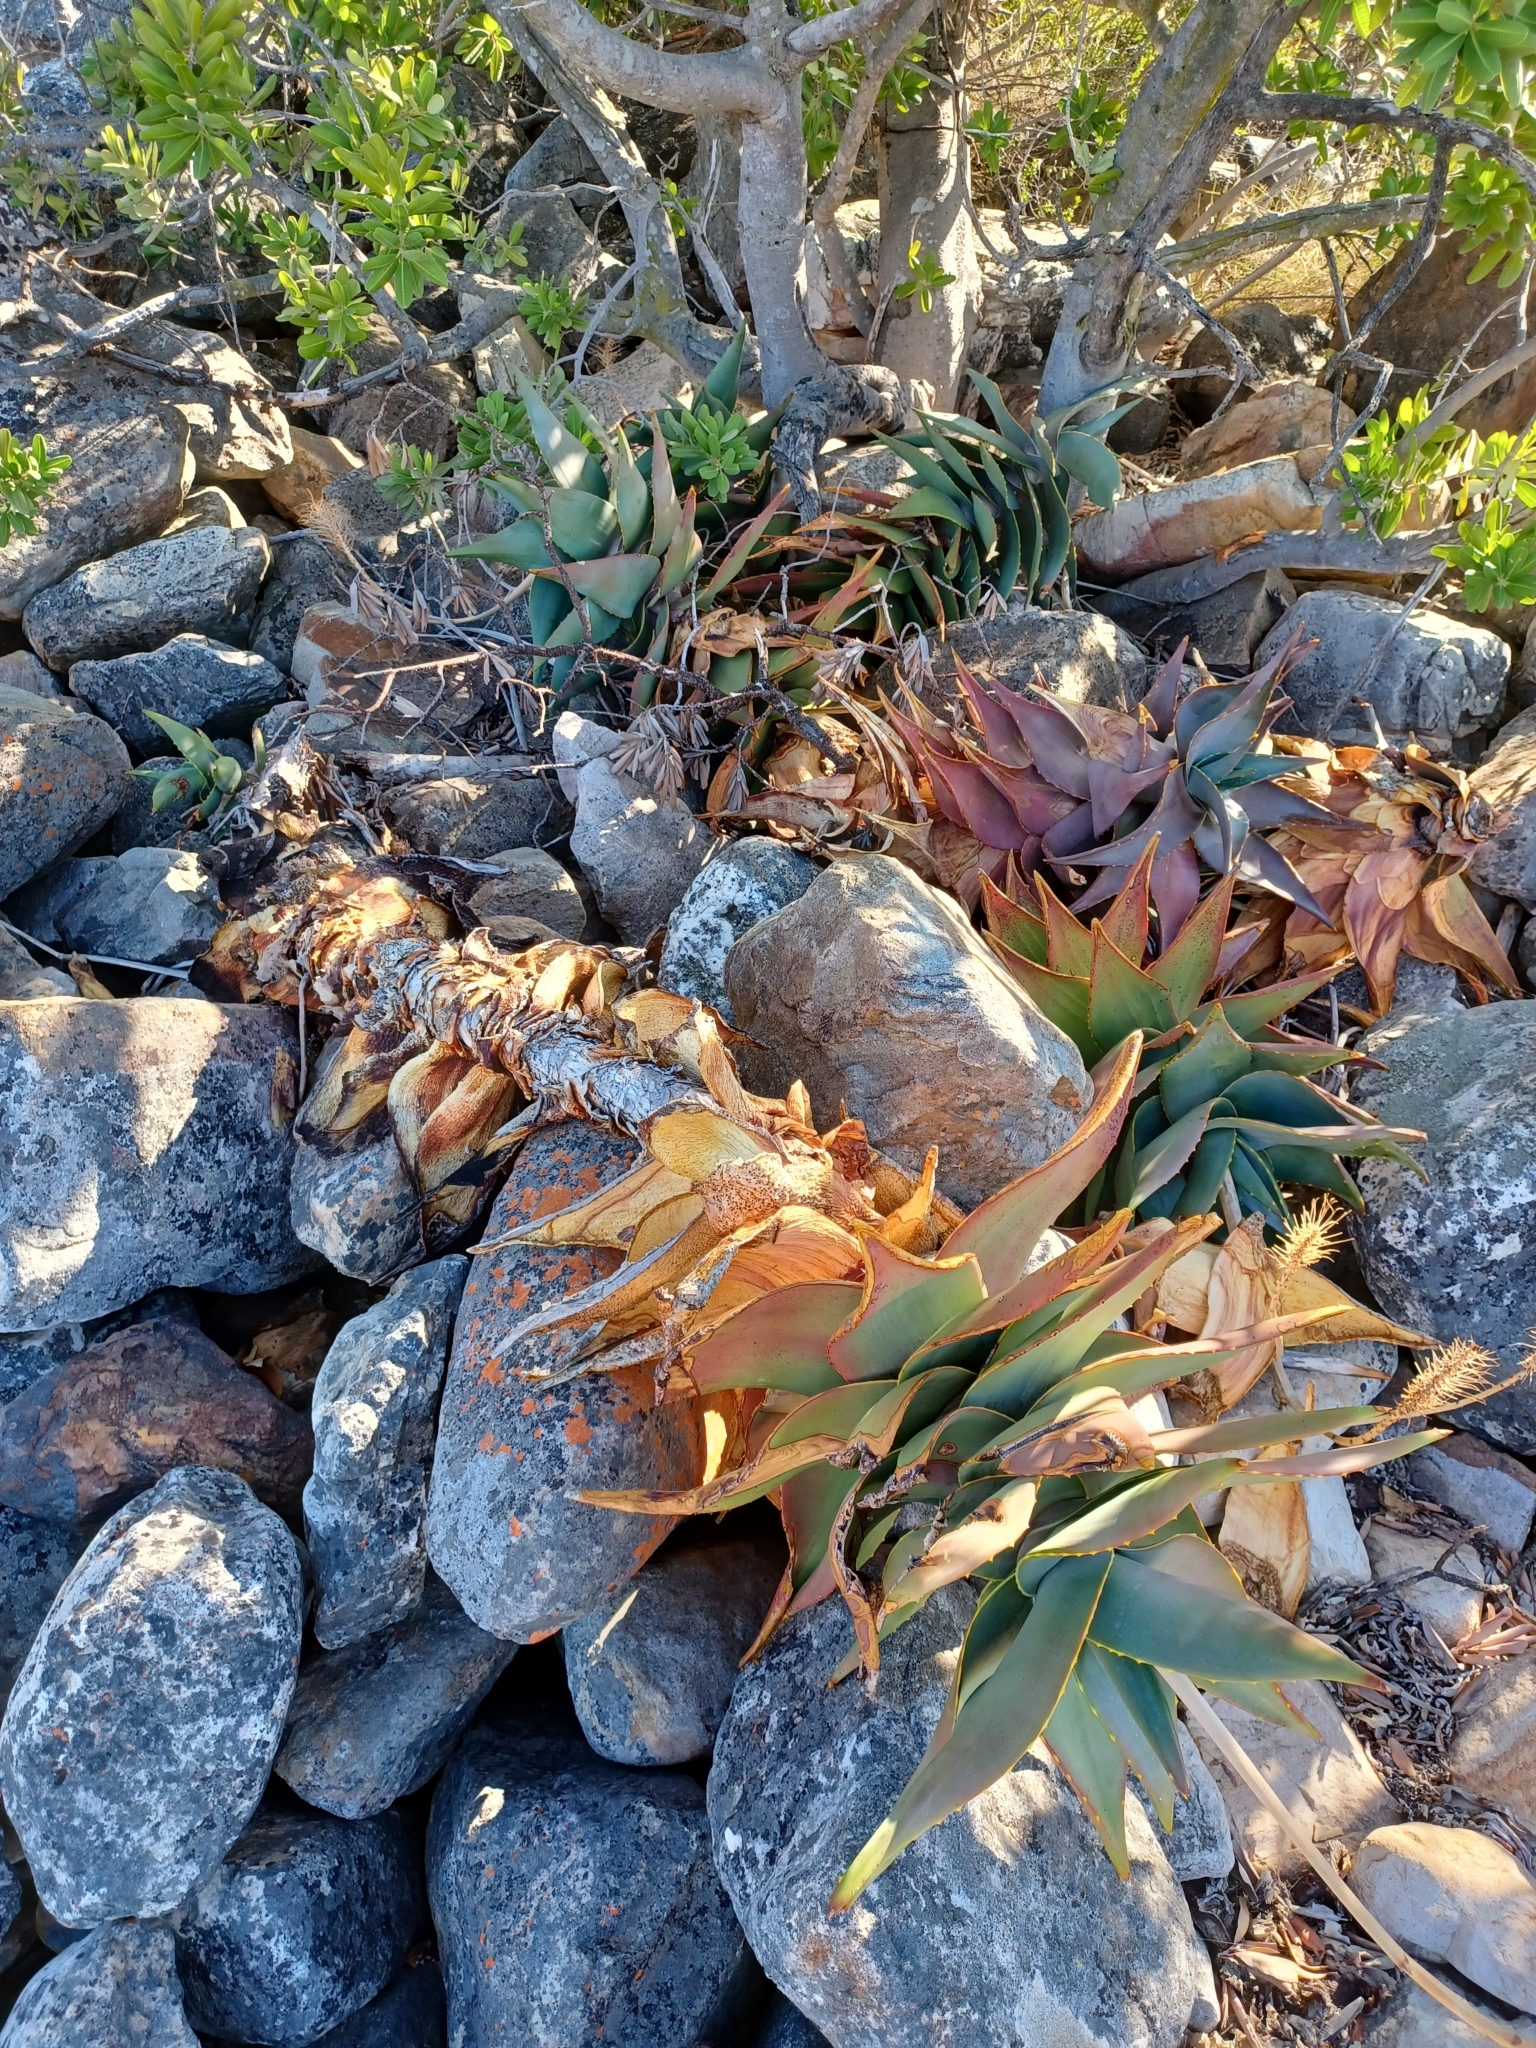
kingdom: Plantae
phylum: Tracheophyta
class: Liliopsida
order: Asparagales
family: Asphodelaceae
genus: Aloe
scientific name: Aloe perfoliata
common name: Mitra aloe
